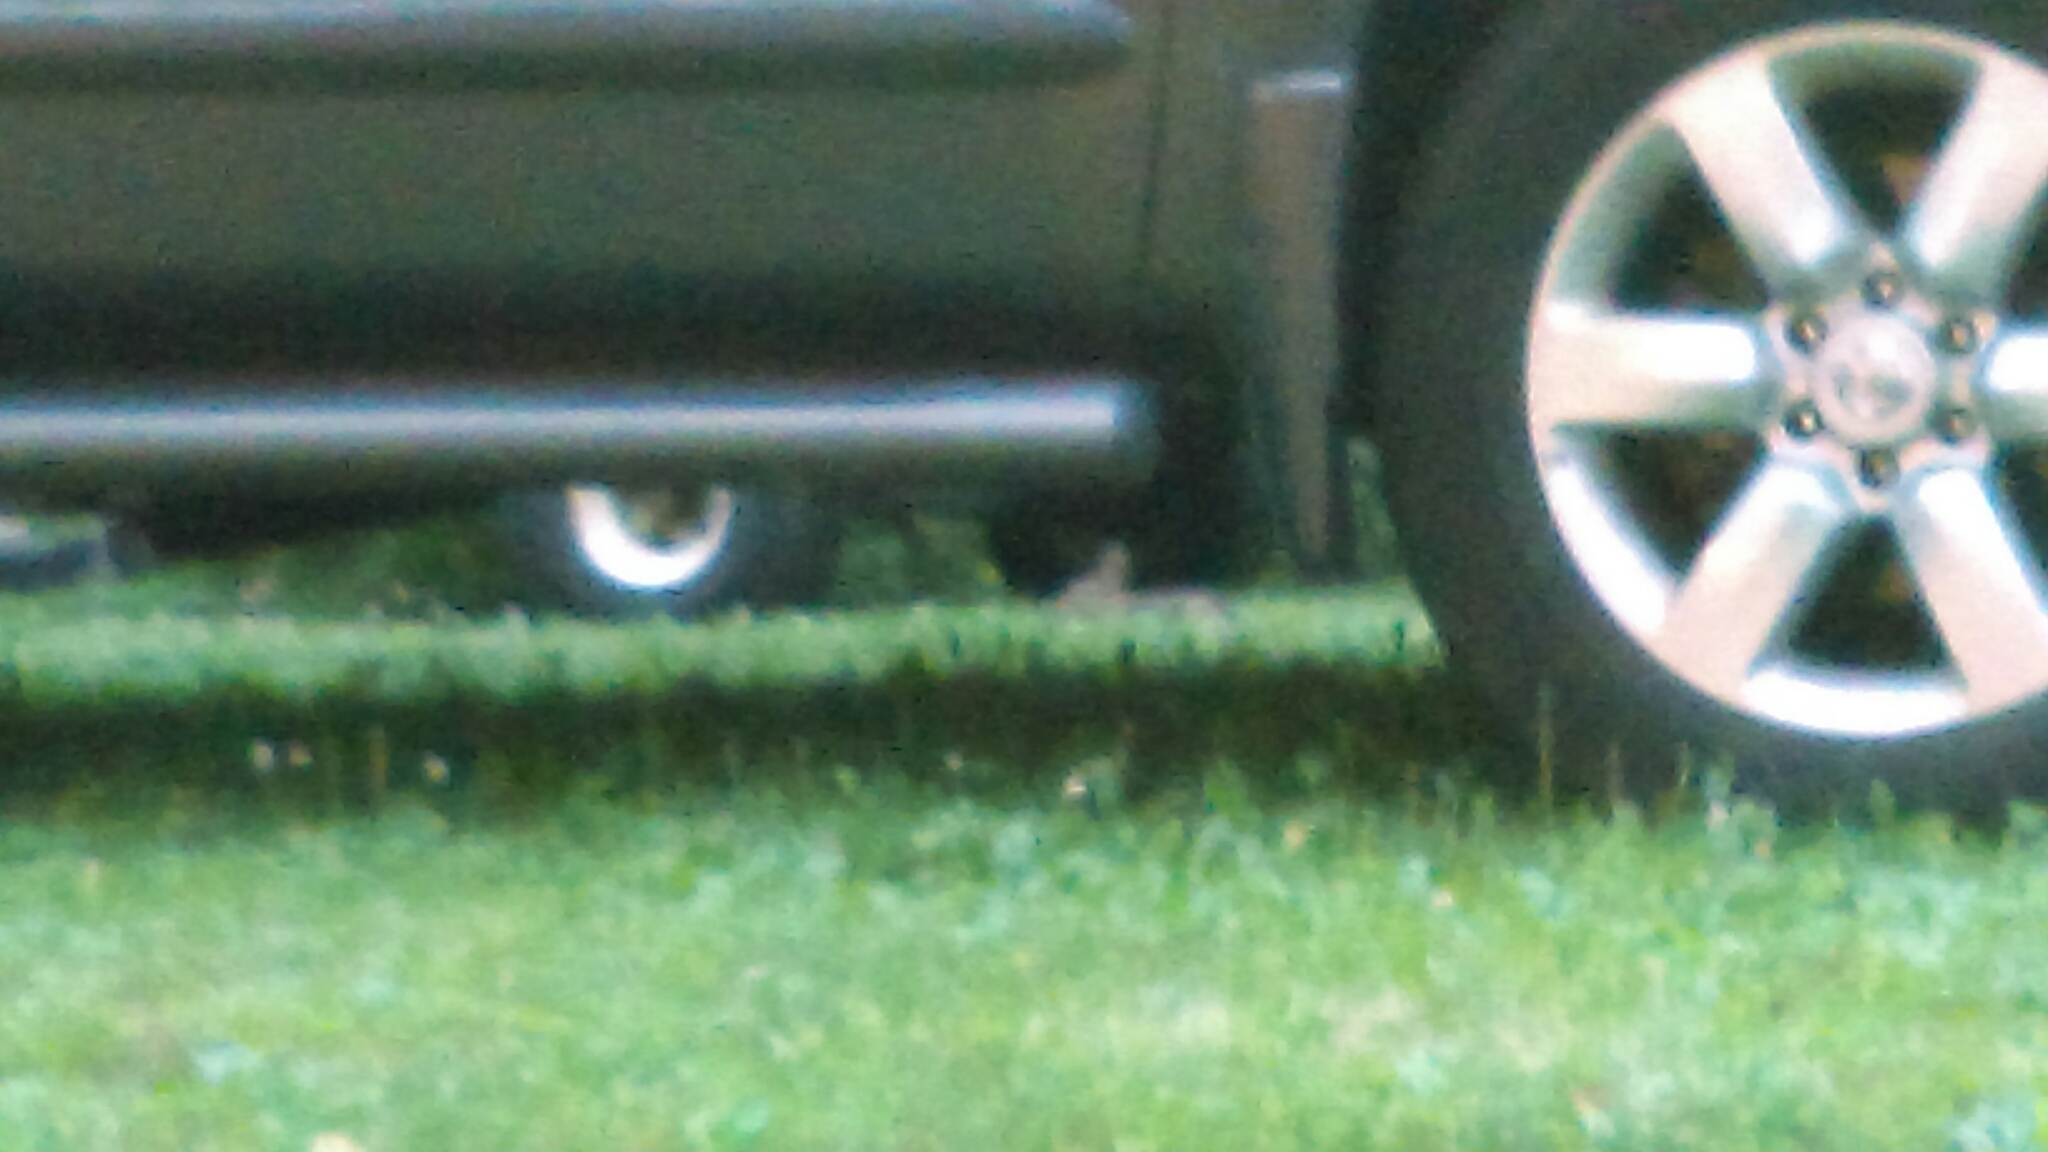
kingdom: Animalia
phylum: Chordata
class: Mammalia
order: Lagomorpha
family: Leporidae
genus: Sylvilagus
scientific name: Sylvilagus floridanus
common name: Eastern cottontail
